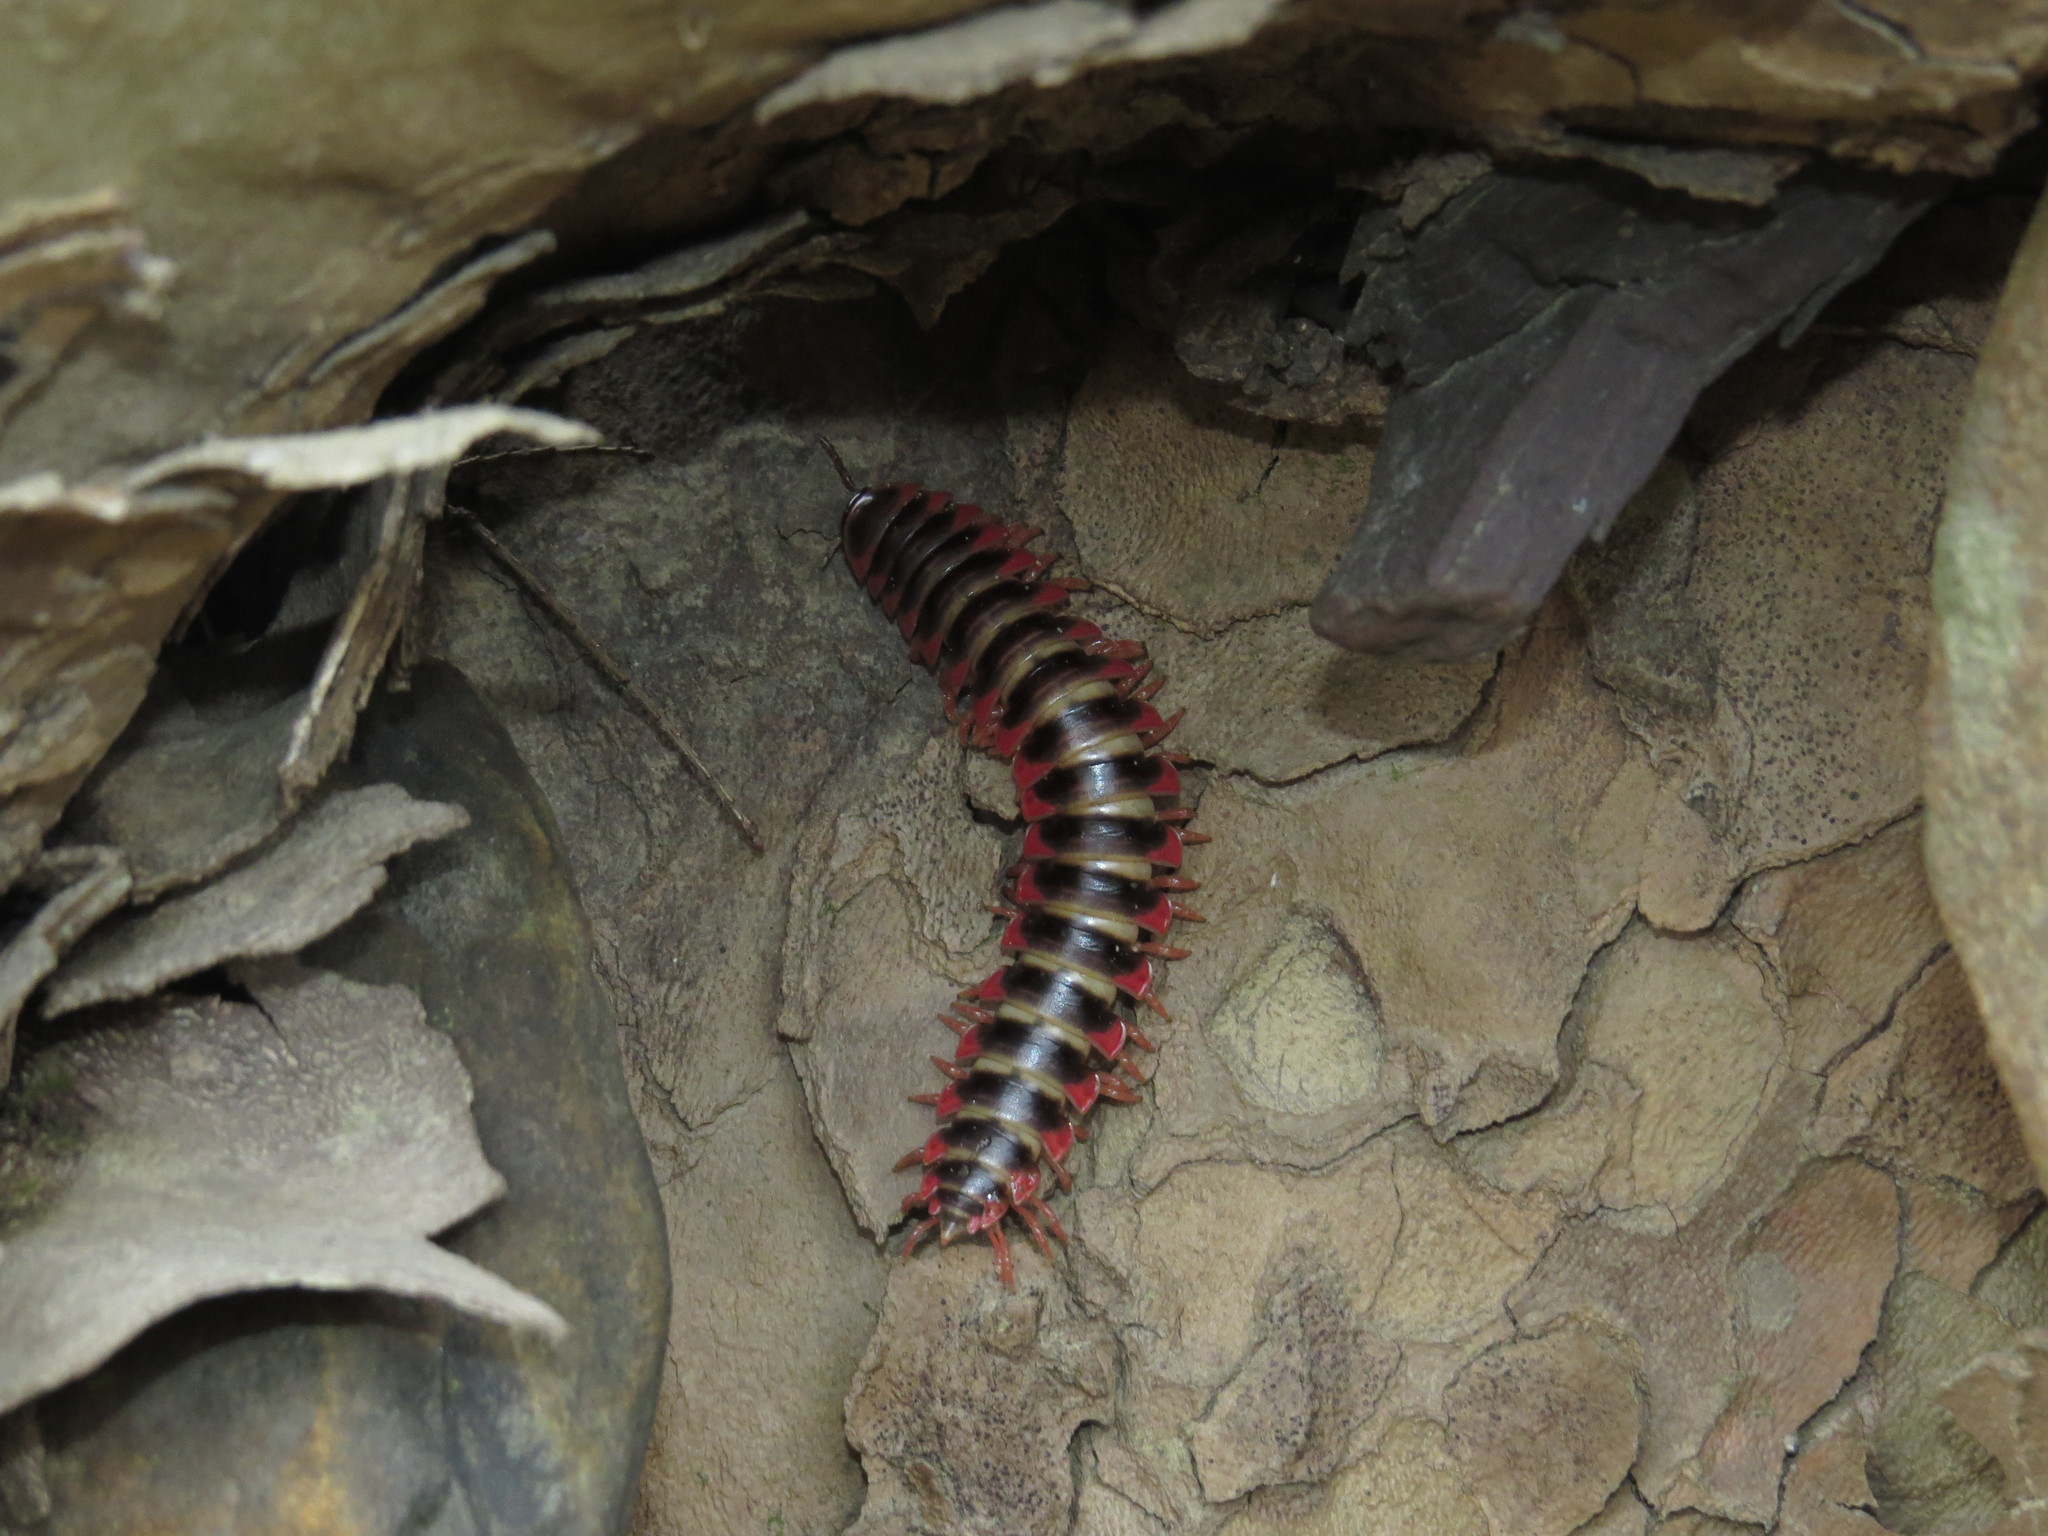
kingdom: Animalia
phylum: Arthropoda
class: Diplopoda
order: Polydesmida
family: Xystodesmidae
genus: Brachoria
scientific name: Brachoria forficata
